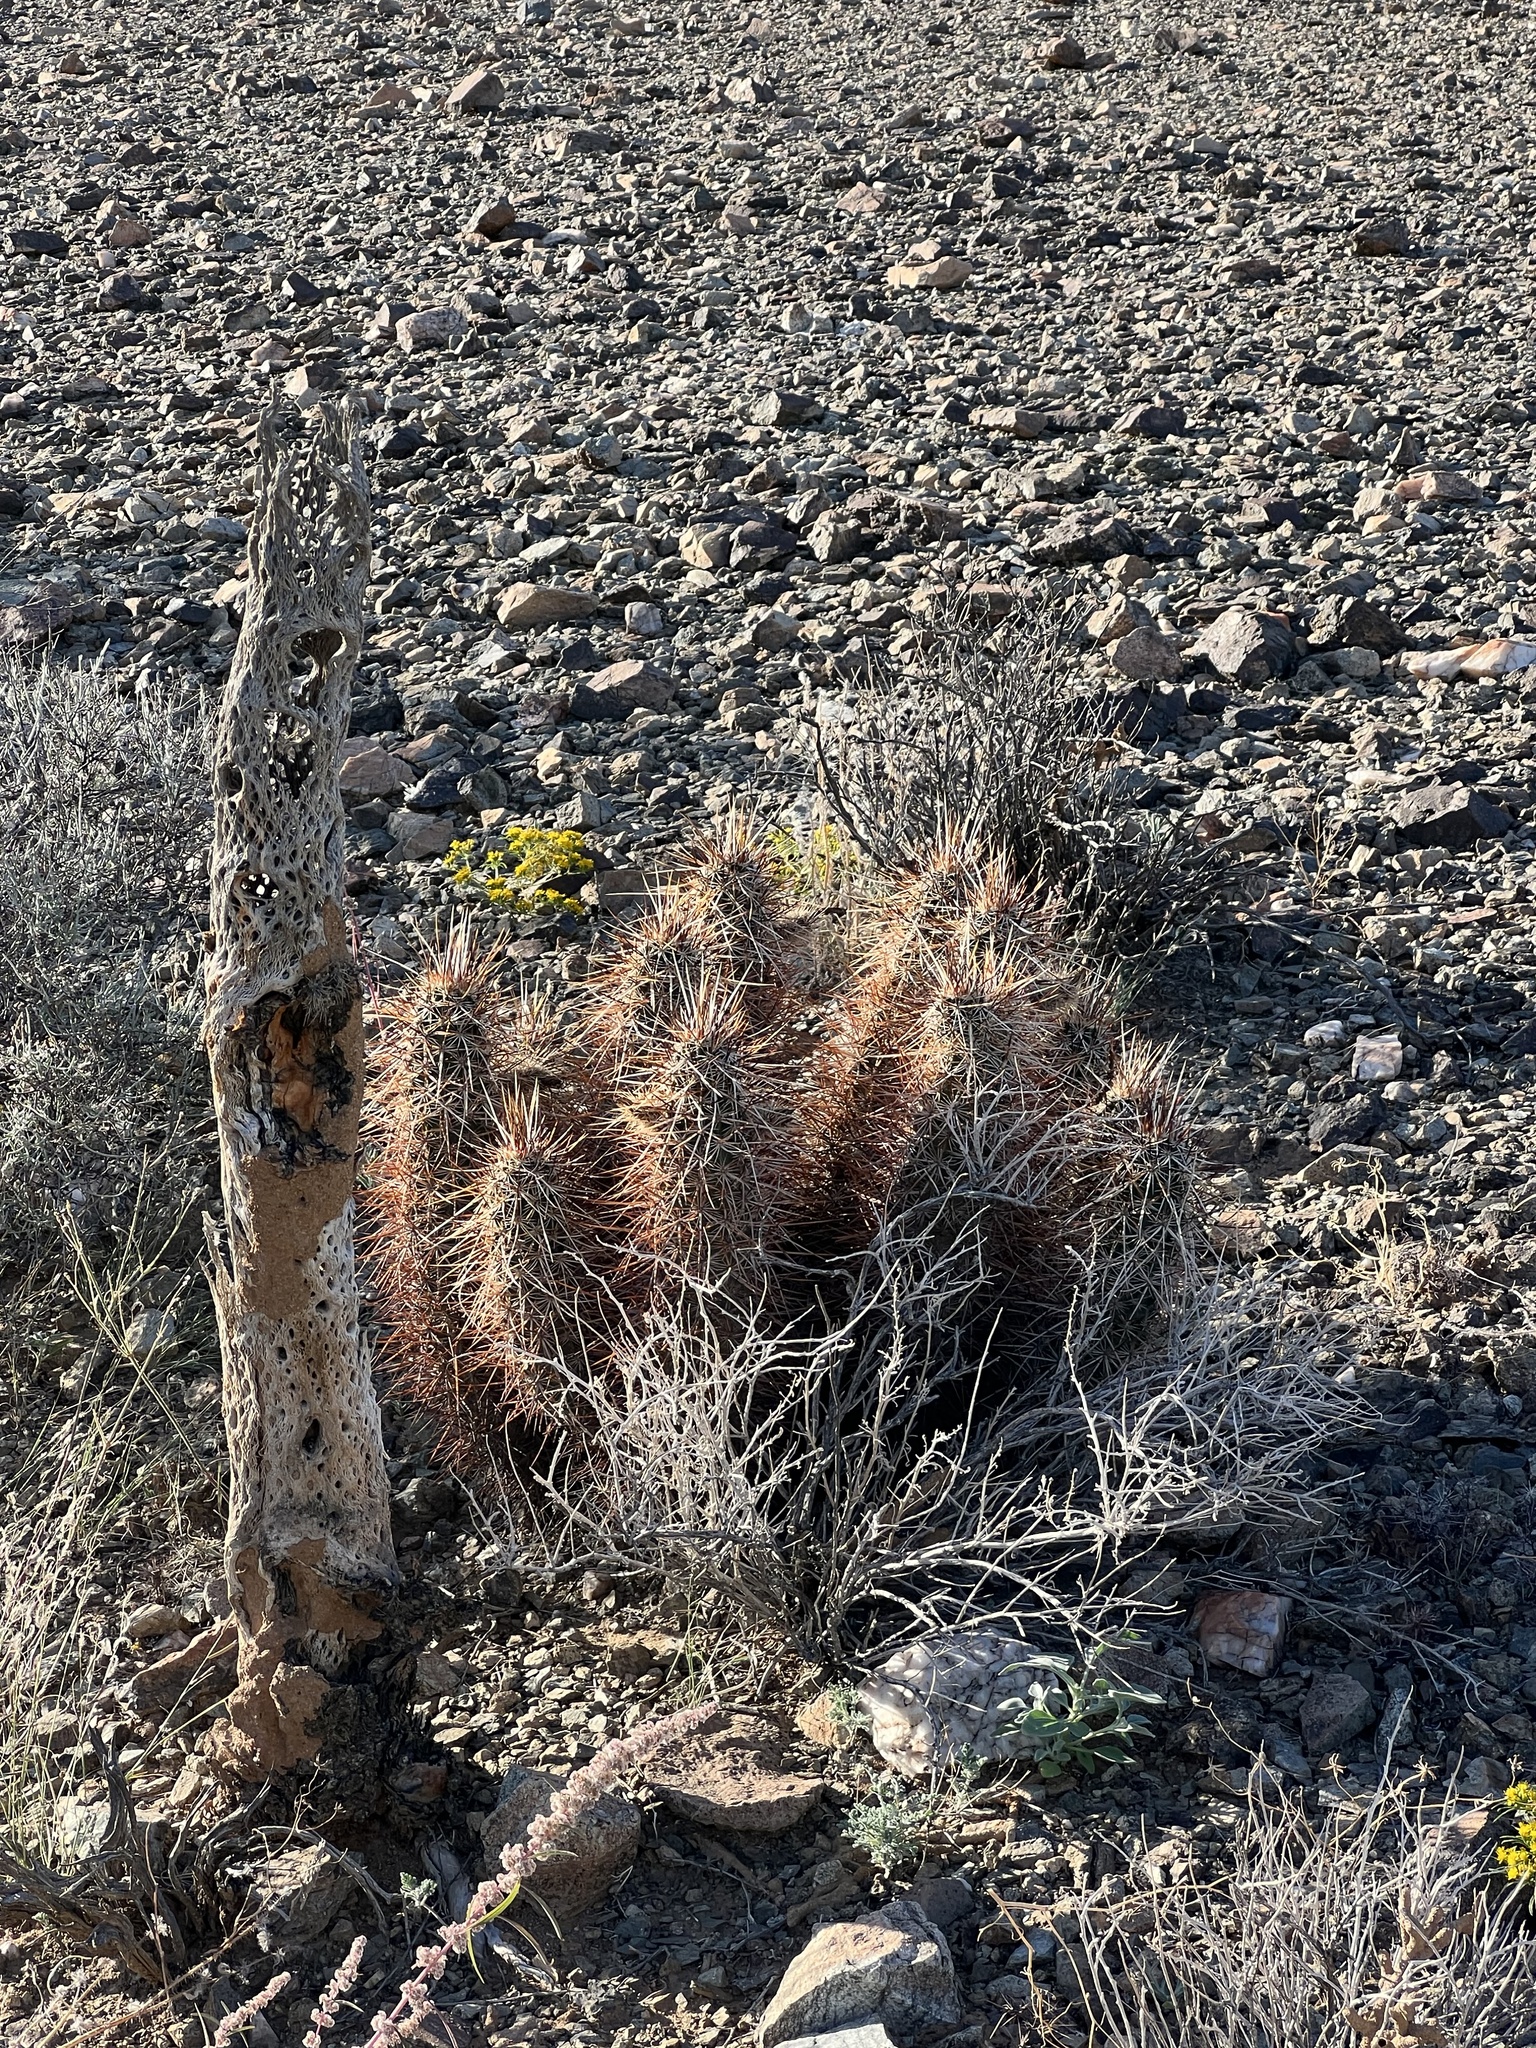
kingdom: Plantae
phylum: Tracheophyta
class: Magnoliopsida
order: Caryophyllales
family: Cactaceae
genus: Echinocereus
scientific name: Echinocereus engelmannii
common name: Engelmann's hedgehog cactus
